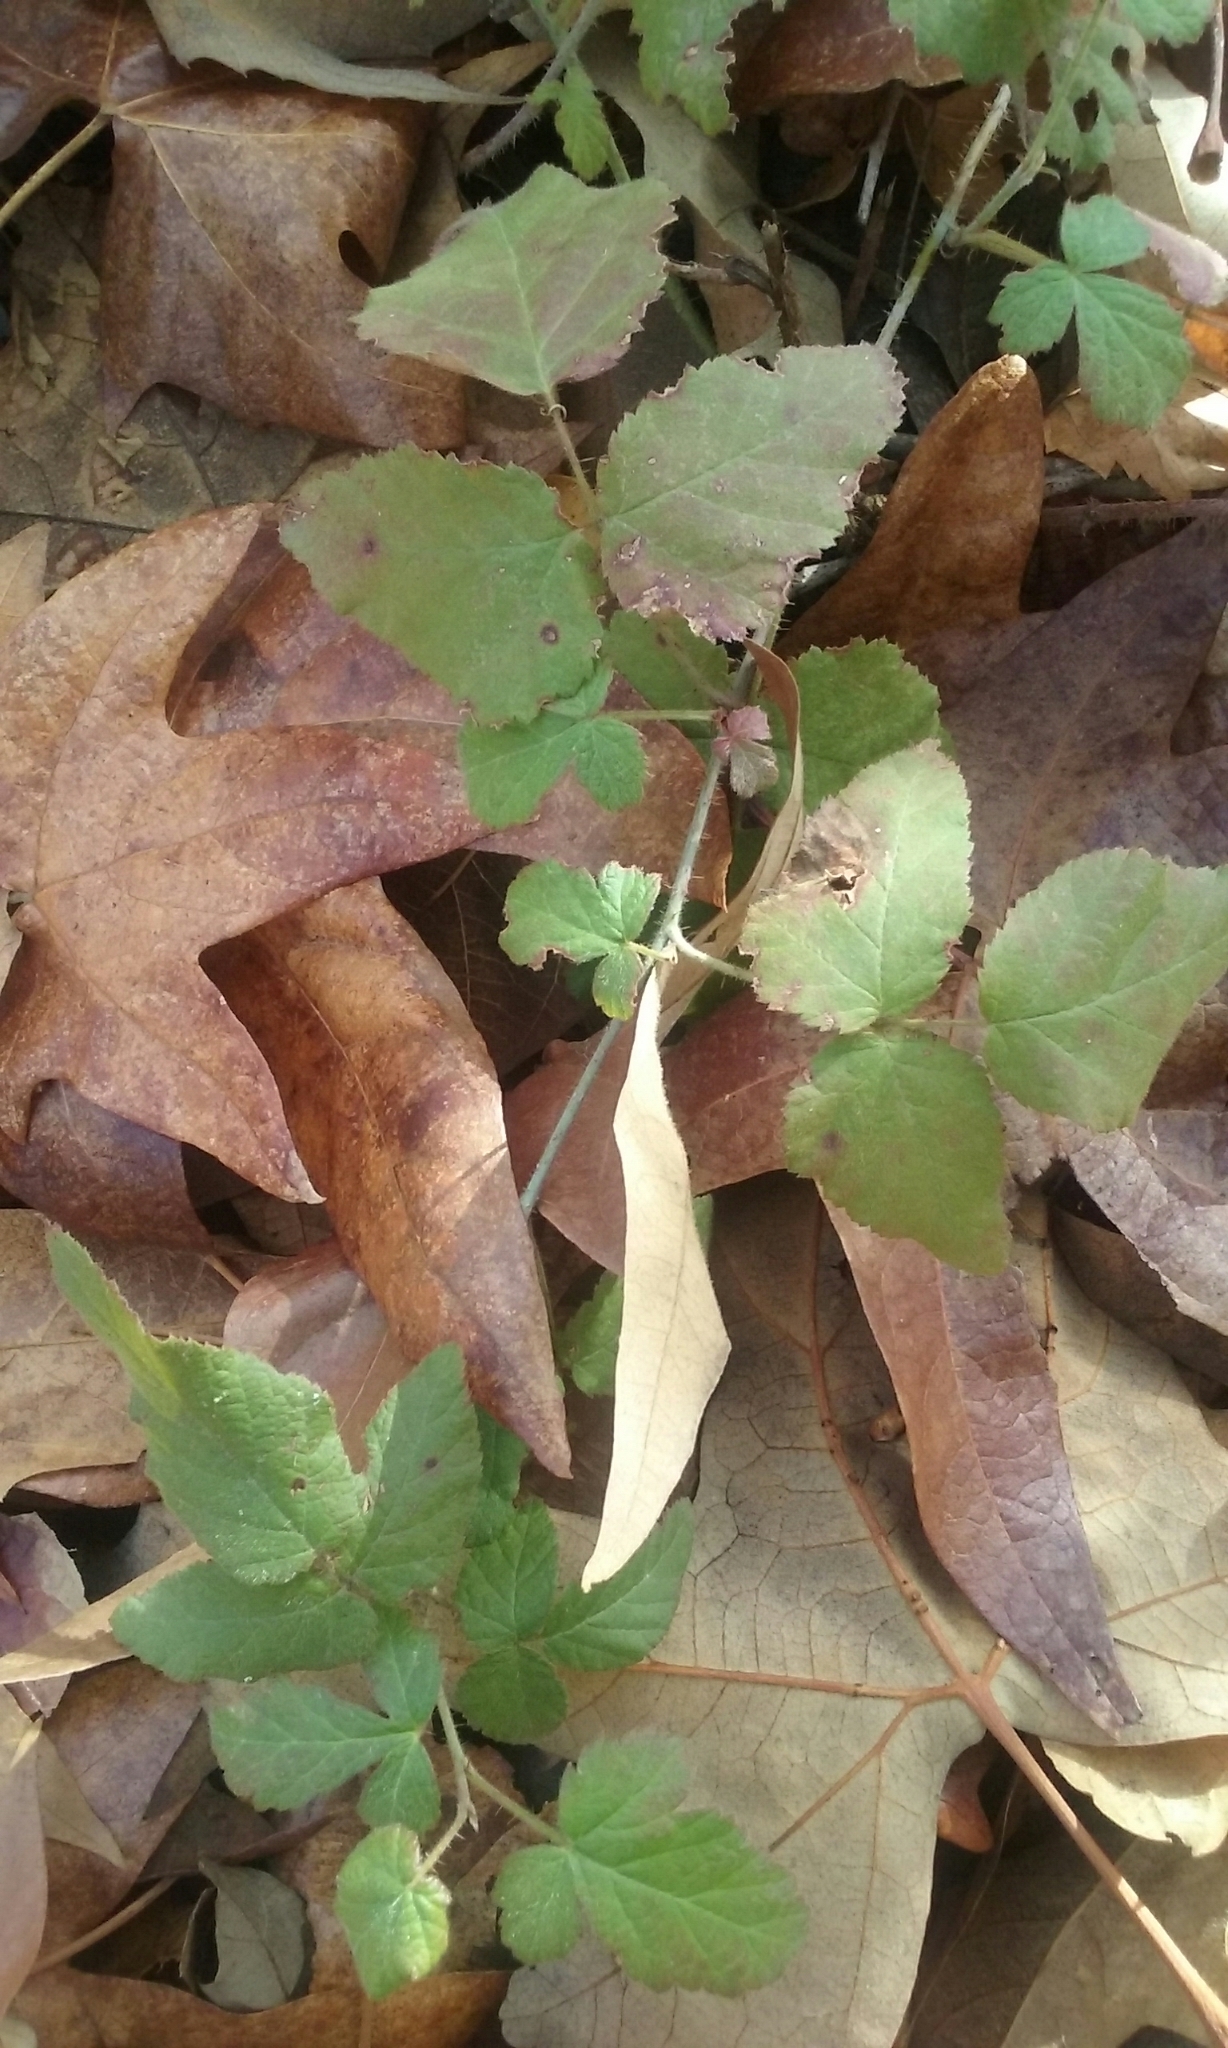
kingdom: Plantae
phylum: Tracheophyta
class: Magnoliopsida
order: Rosales
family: Rosaceae
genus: Rubus
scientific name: Rubus ursinus
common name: Pacific blackberry
